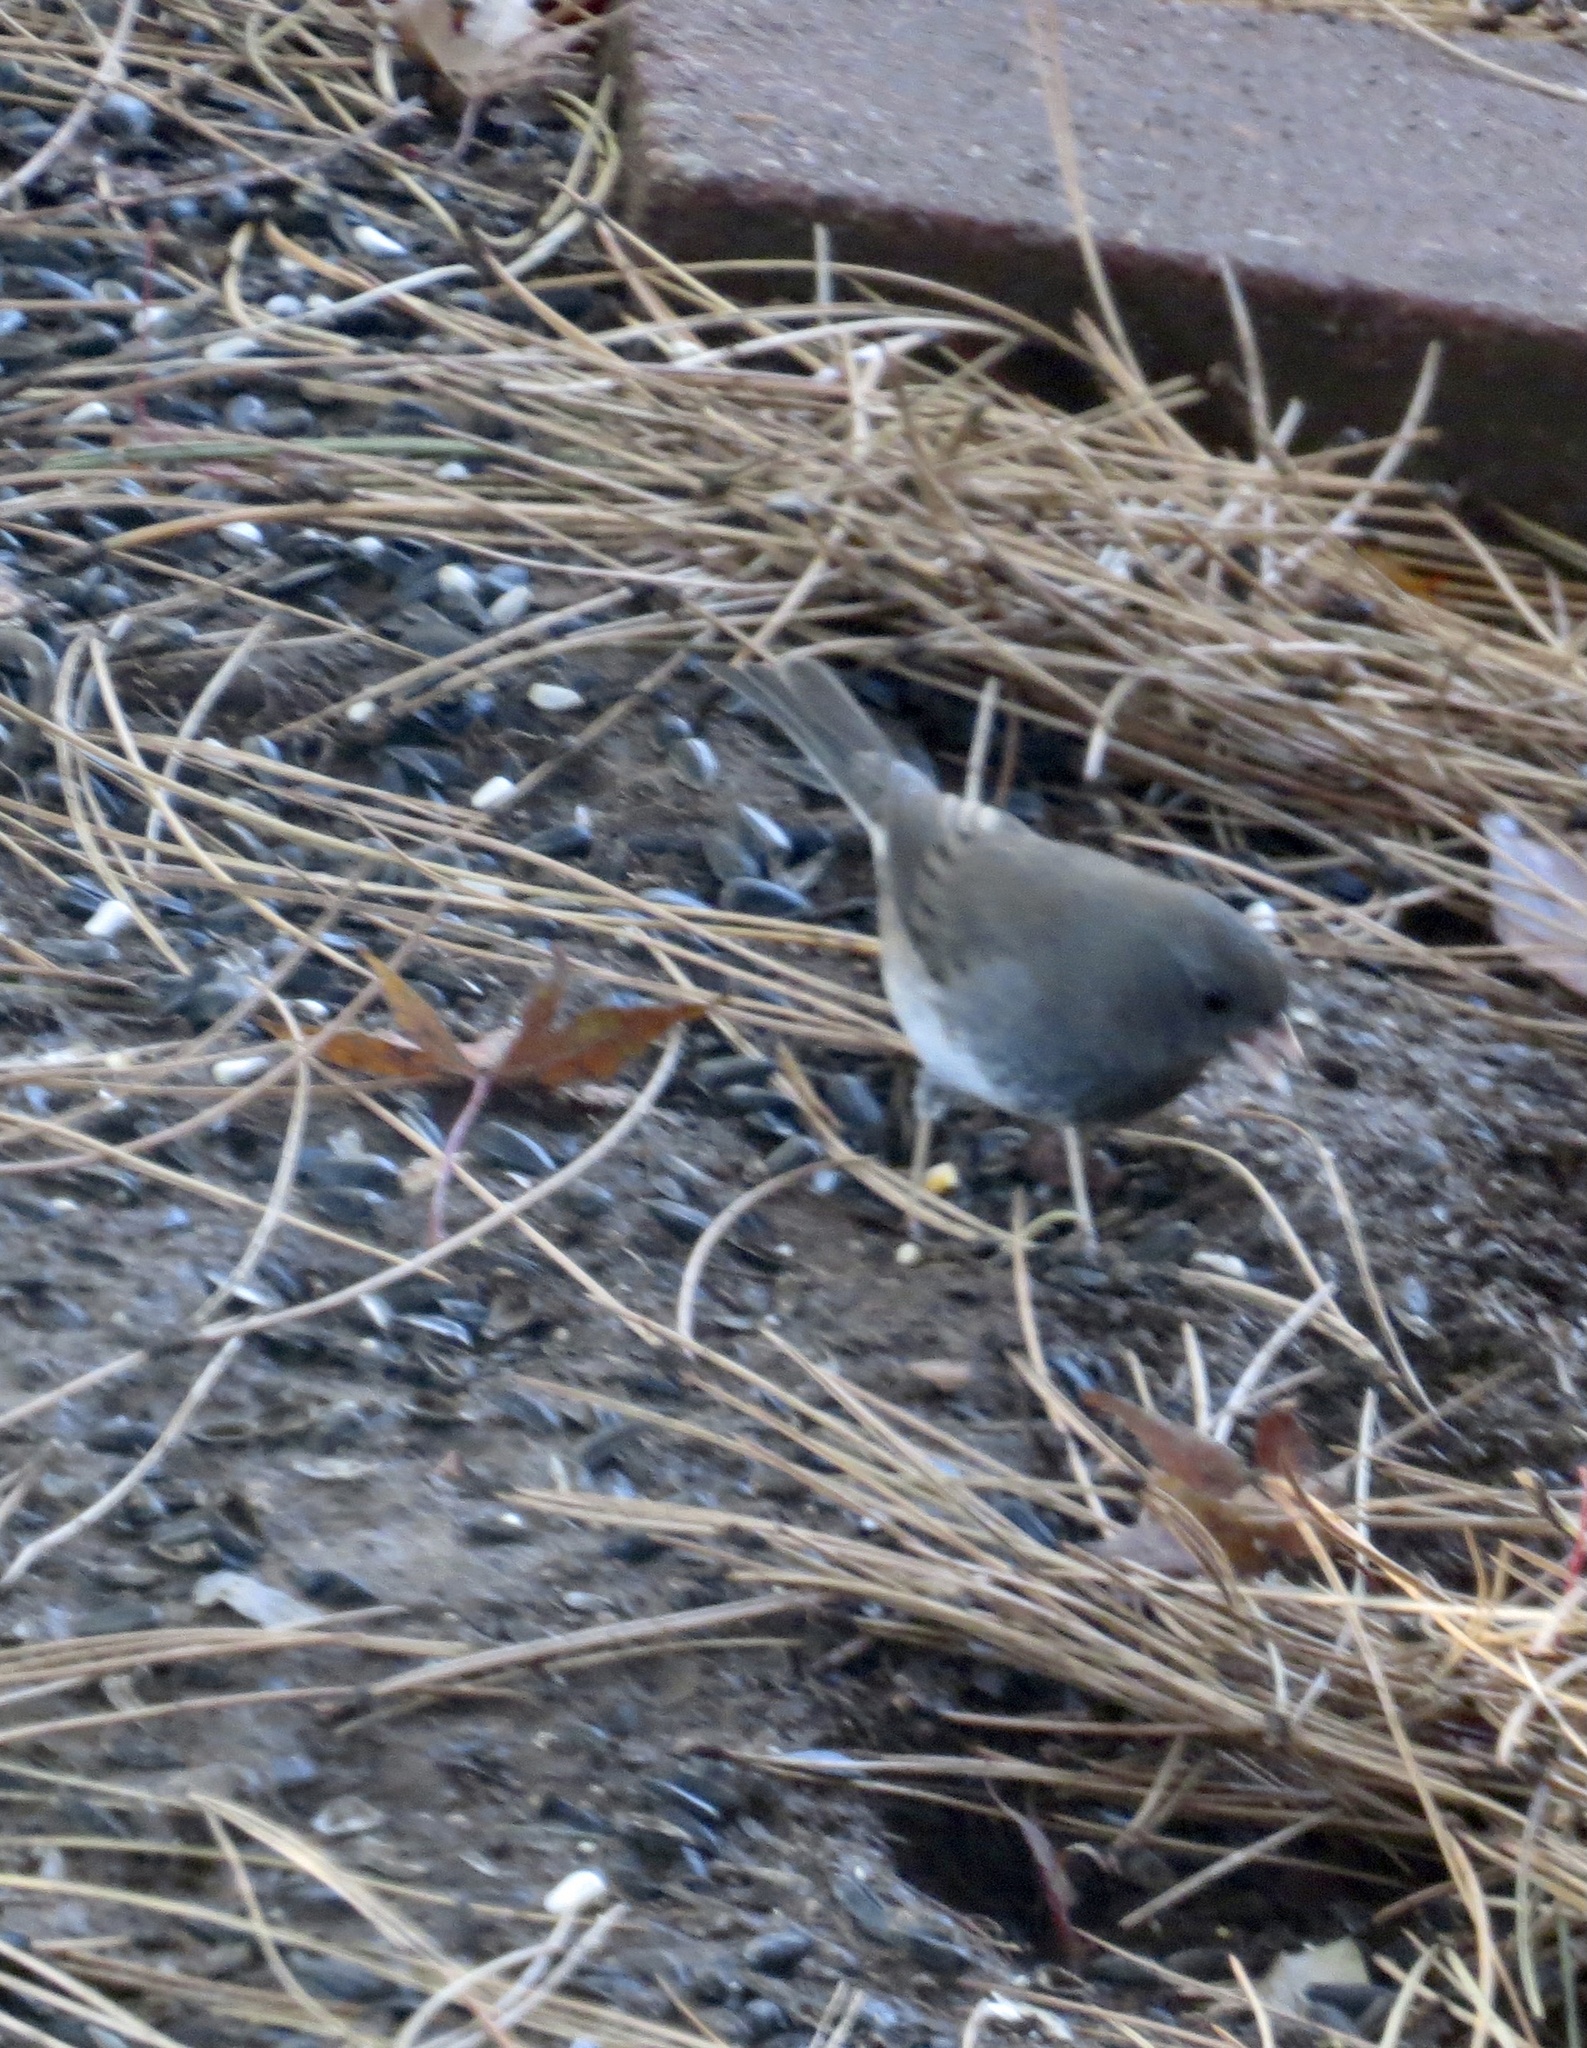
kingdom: Animalia
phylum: Chordata
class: Aves
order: Passeriformes
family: Passerellidae
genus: Junco
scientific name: Junco hyemalis
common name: Dark-eyed junco
